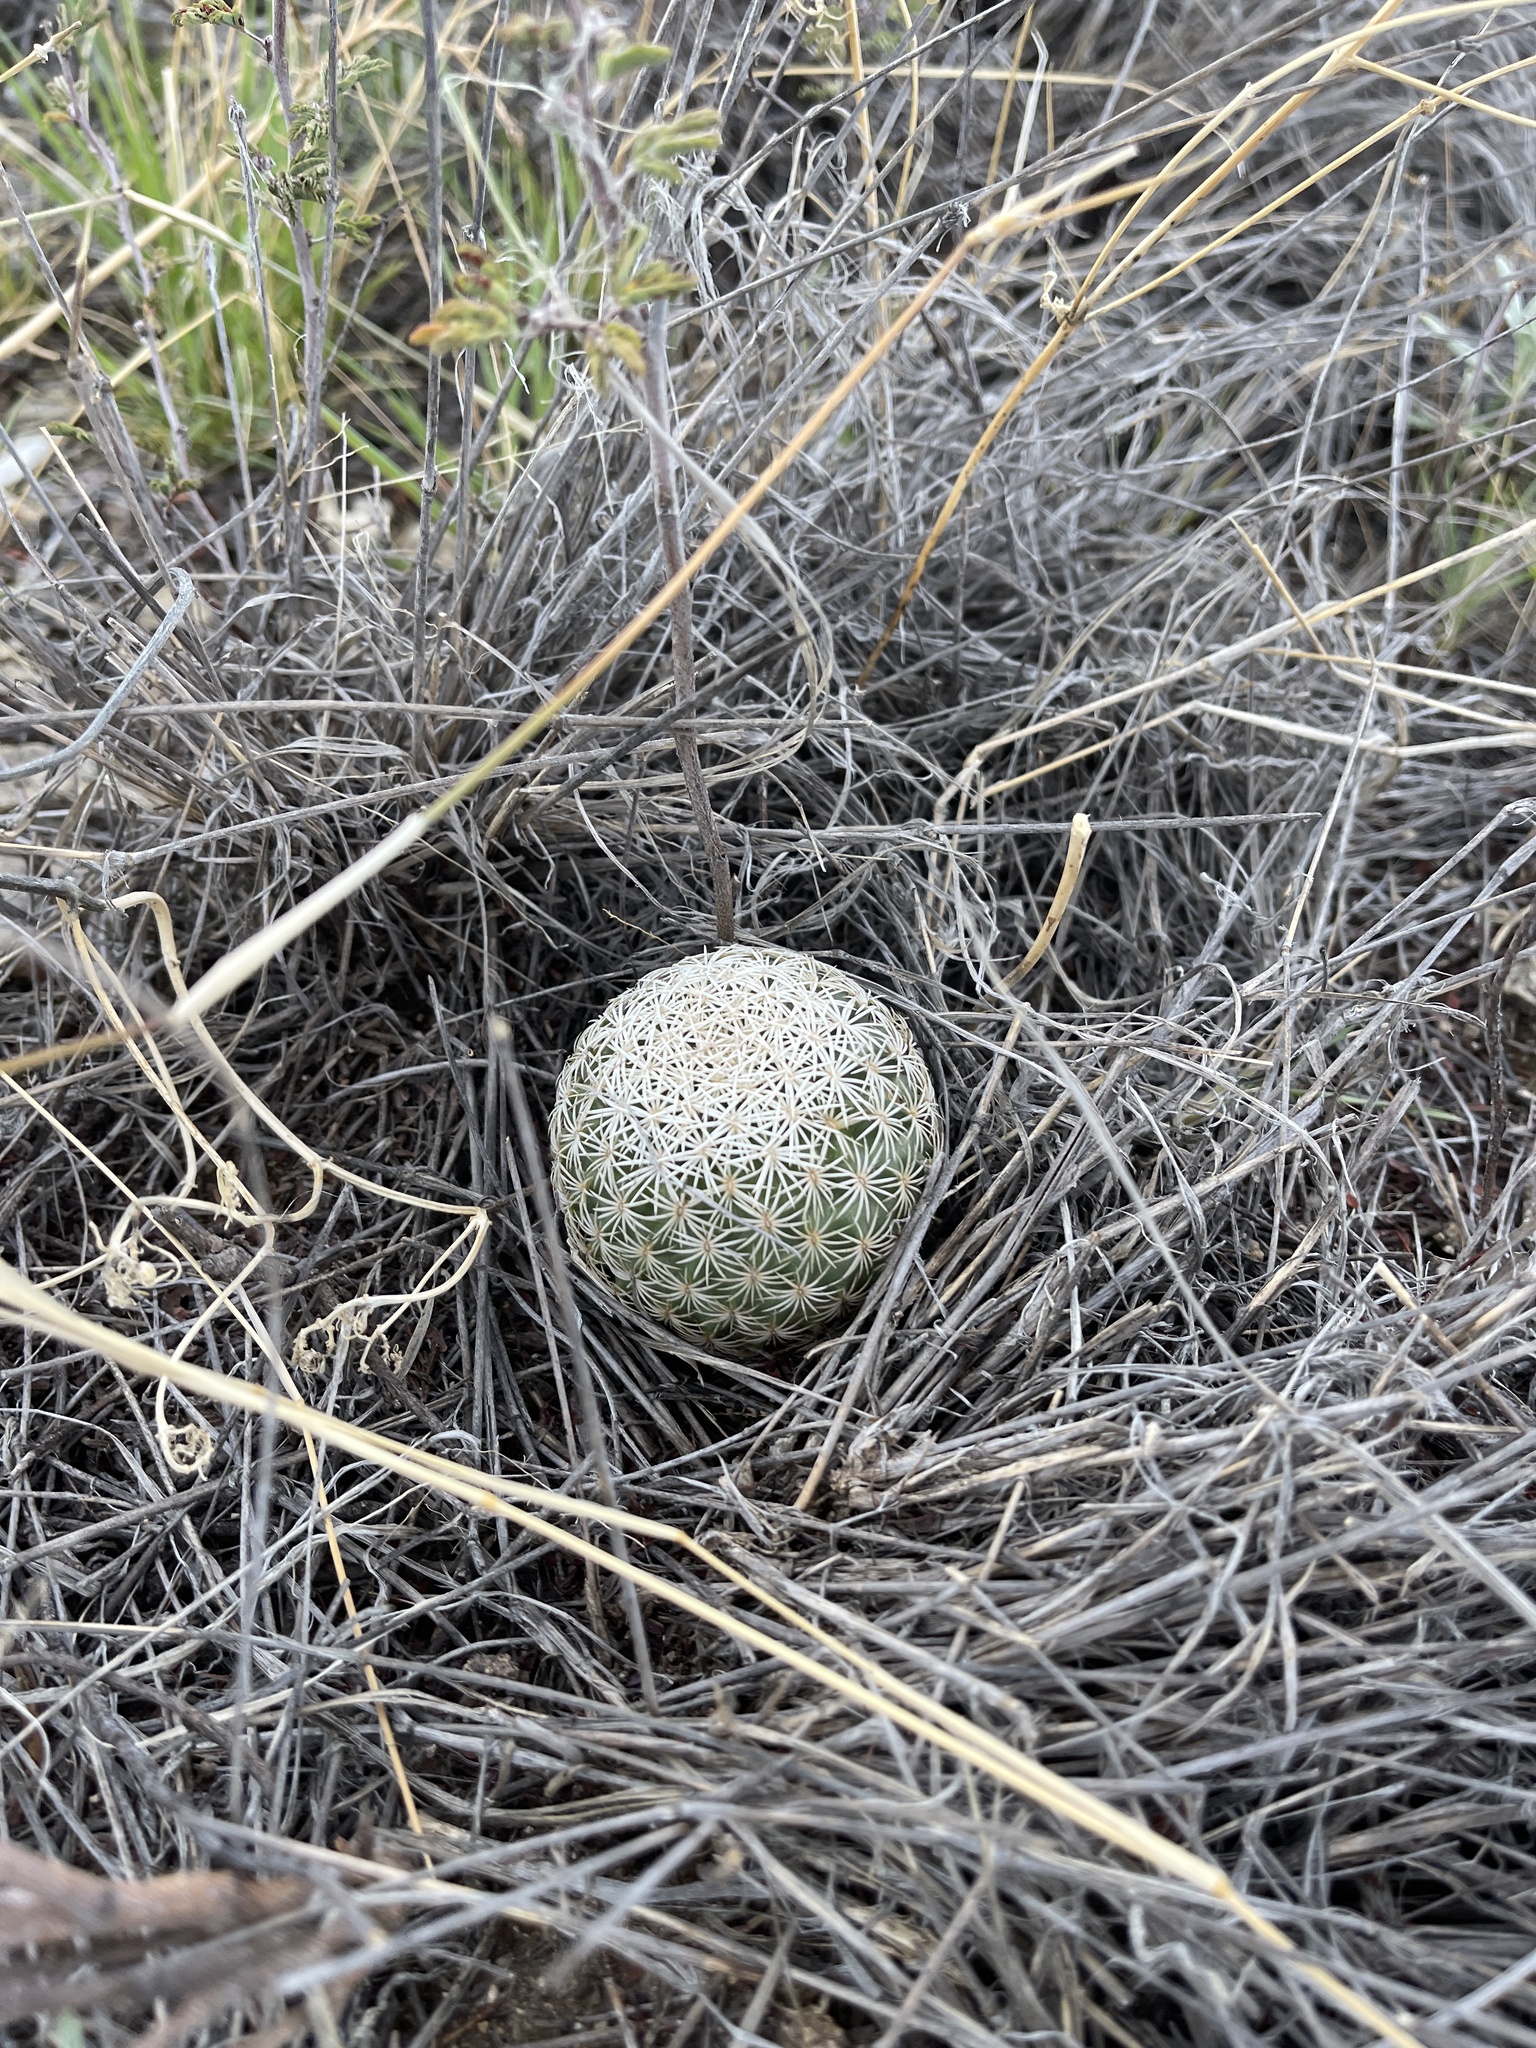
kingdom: Plantae
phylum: Tracheophyta
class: Magnoliopsida
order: Caryophyllales
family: Cactaceae
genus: Sclerocactus
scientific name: Sclerocactus johnsonii
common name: Eight-spine fishhook cactus
